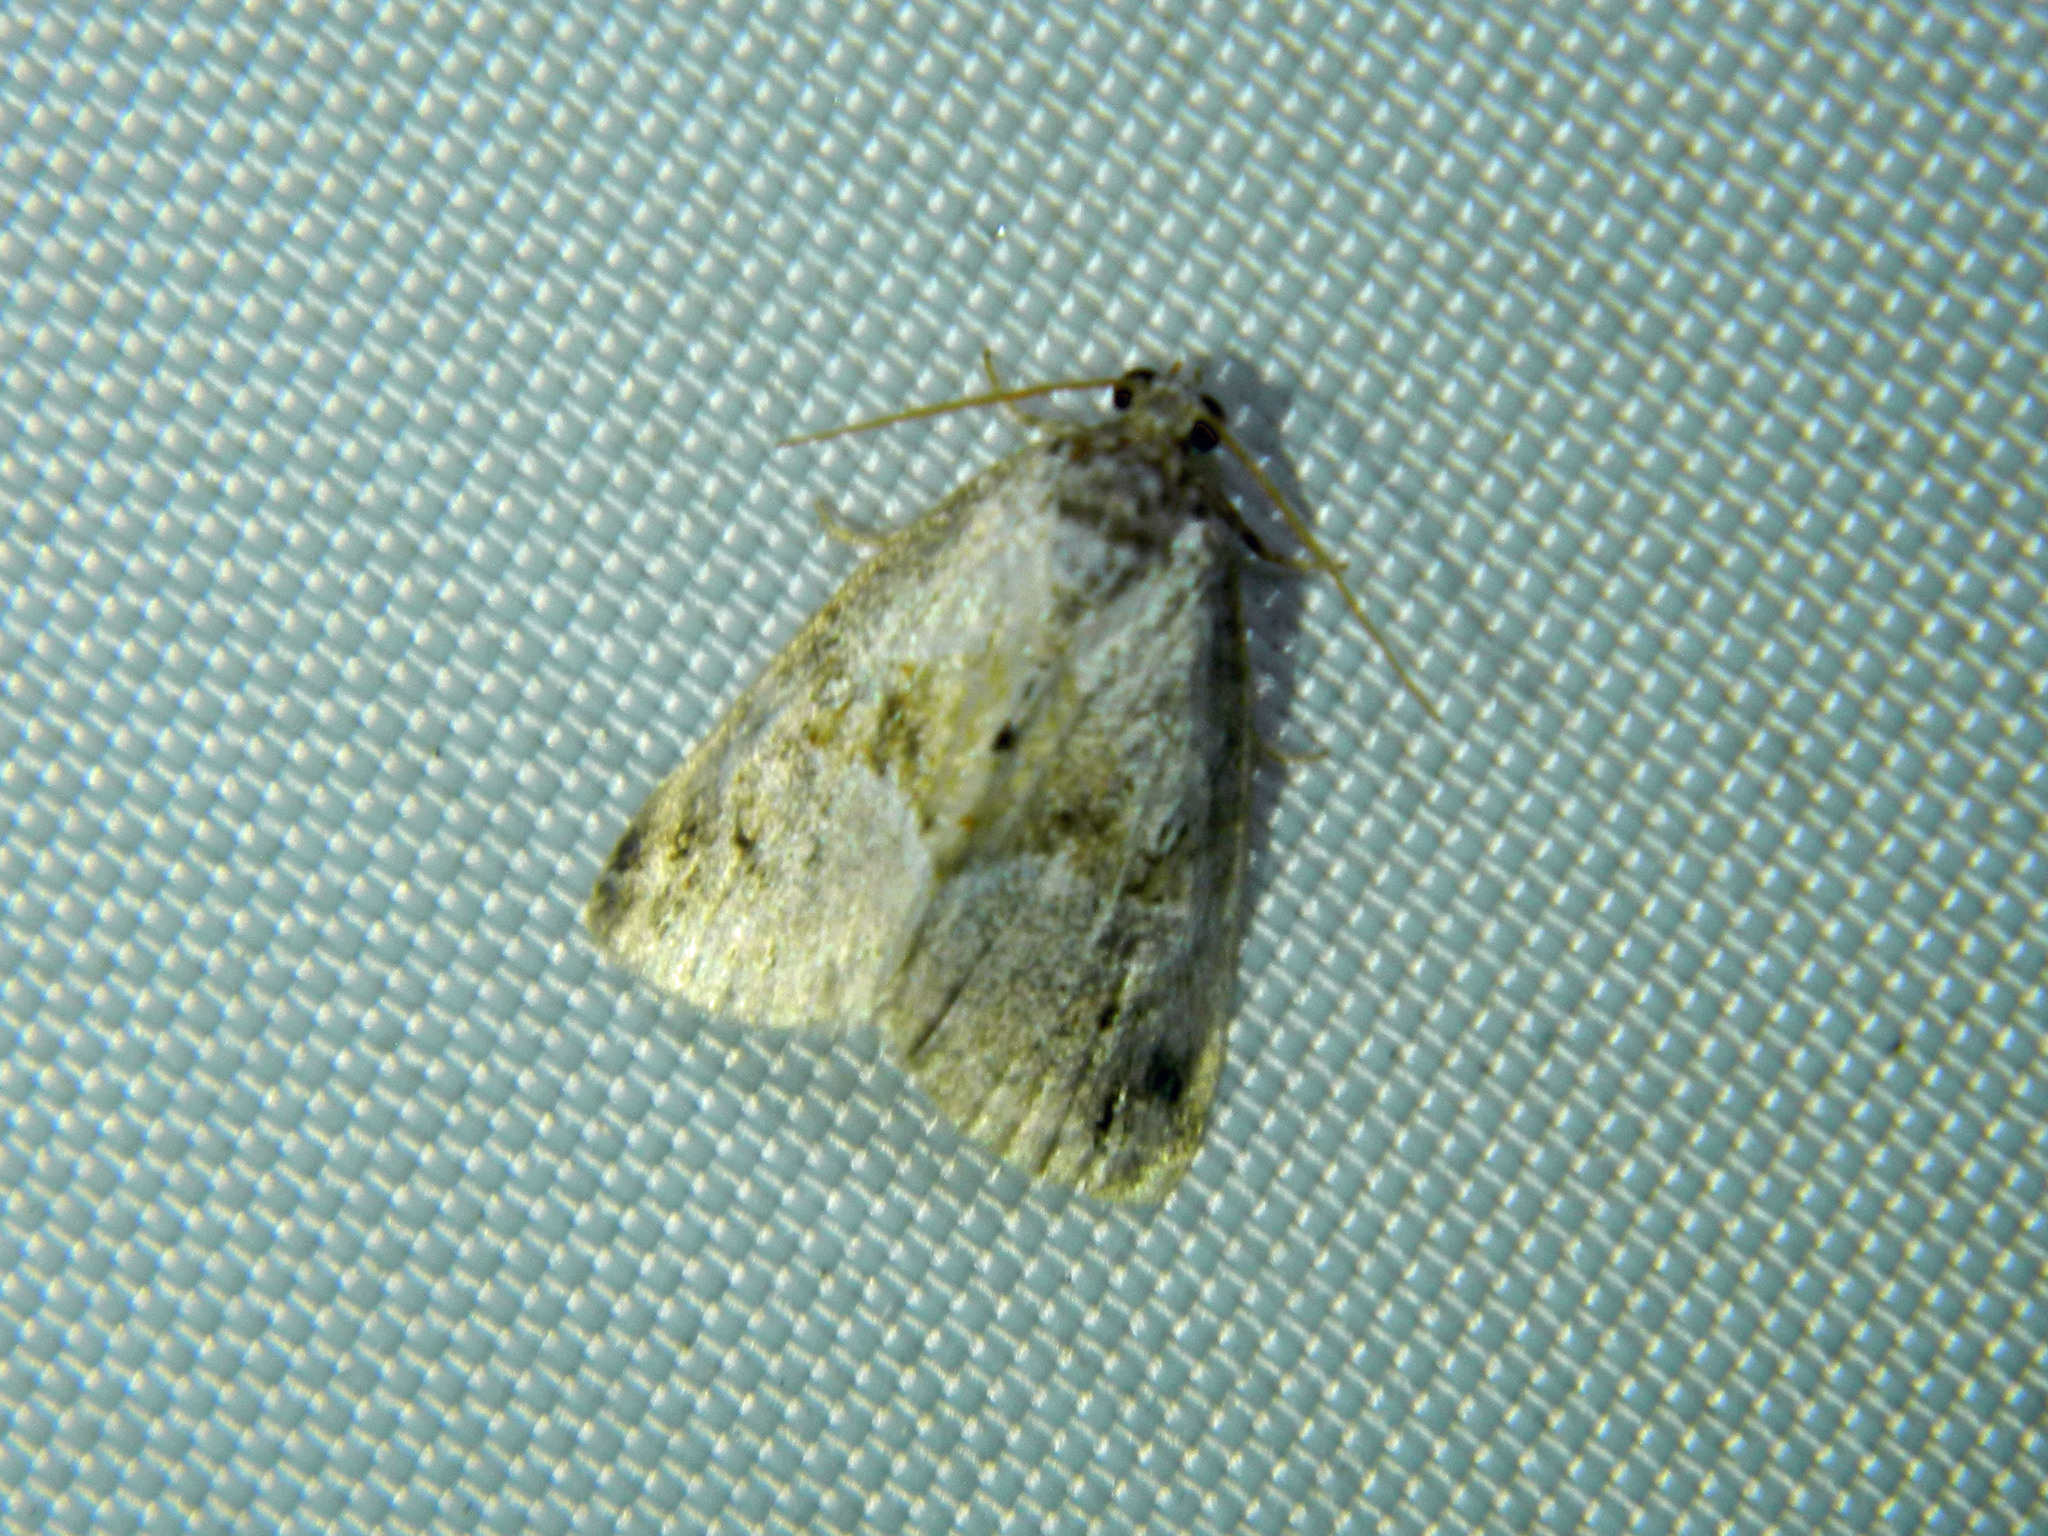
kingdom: Animalia
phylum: Arthropoda
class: Insecta
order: Lepidoptera
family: Noctuidae
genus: Maliattha
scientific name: Maliattha synochitis
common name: Black-dotted glyph
